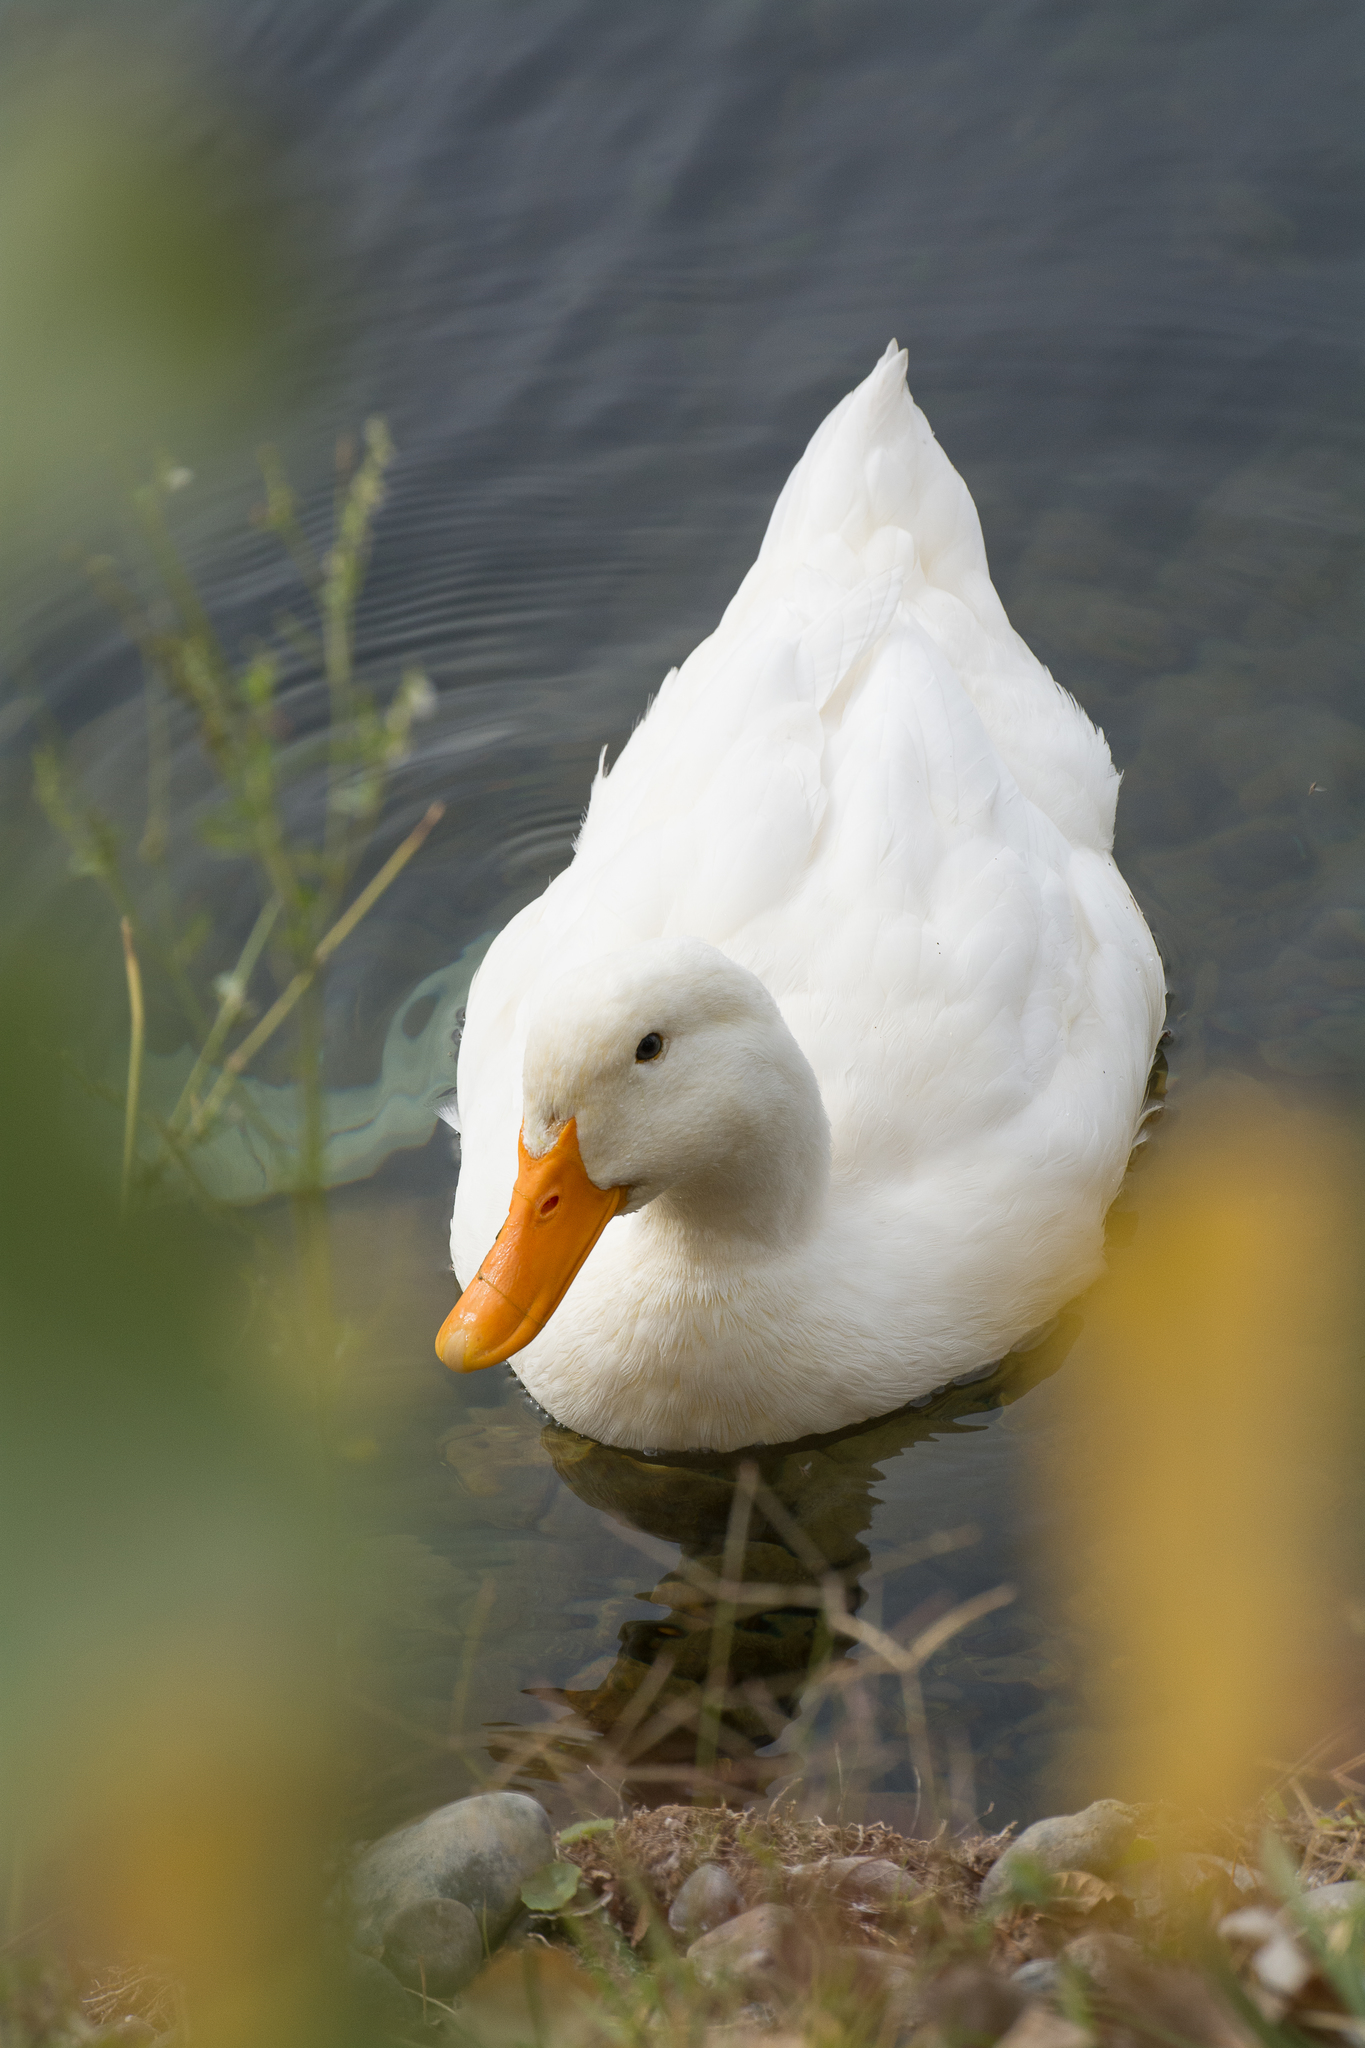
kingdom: Animalia
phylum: Chordata
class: Aves
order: Anseriformes
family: Anatidae
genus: Anas
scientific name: Anas platyrhynchos
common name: Mallard
